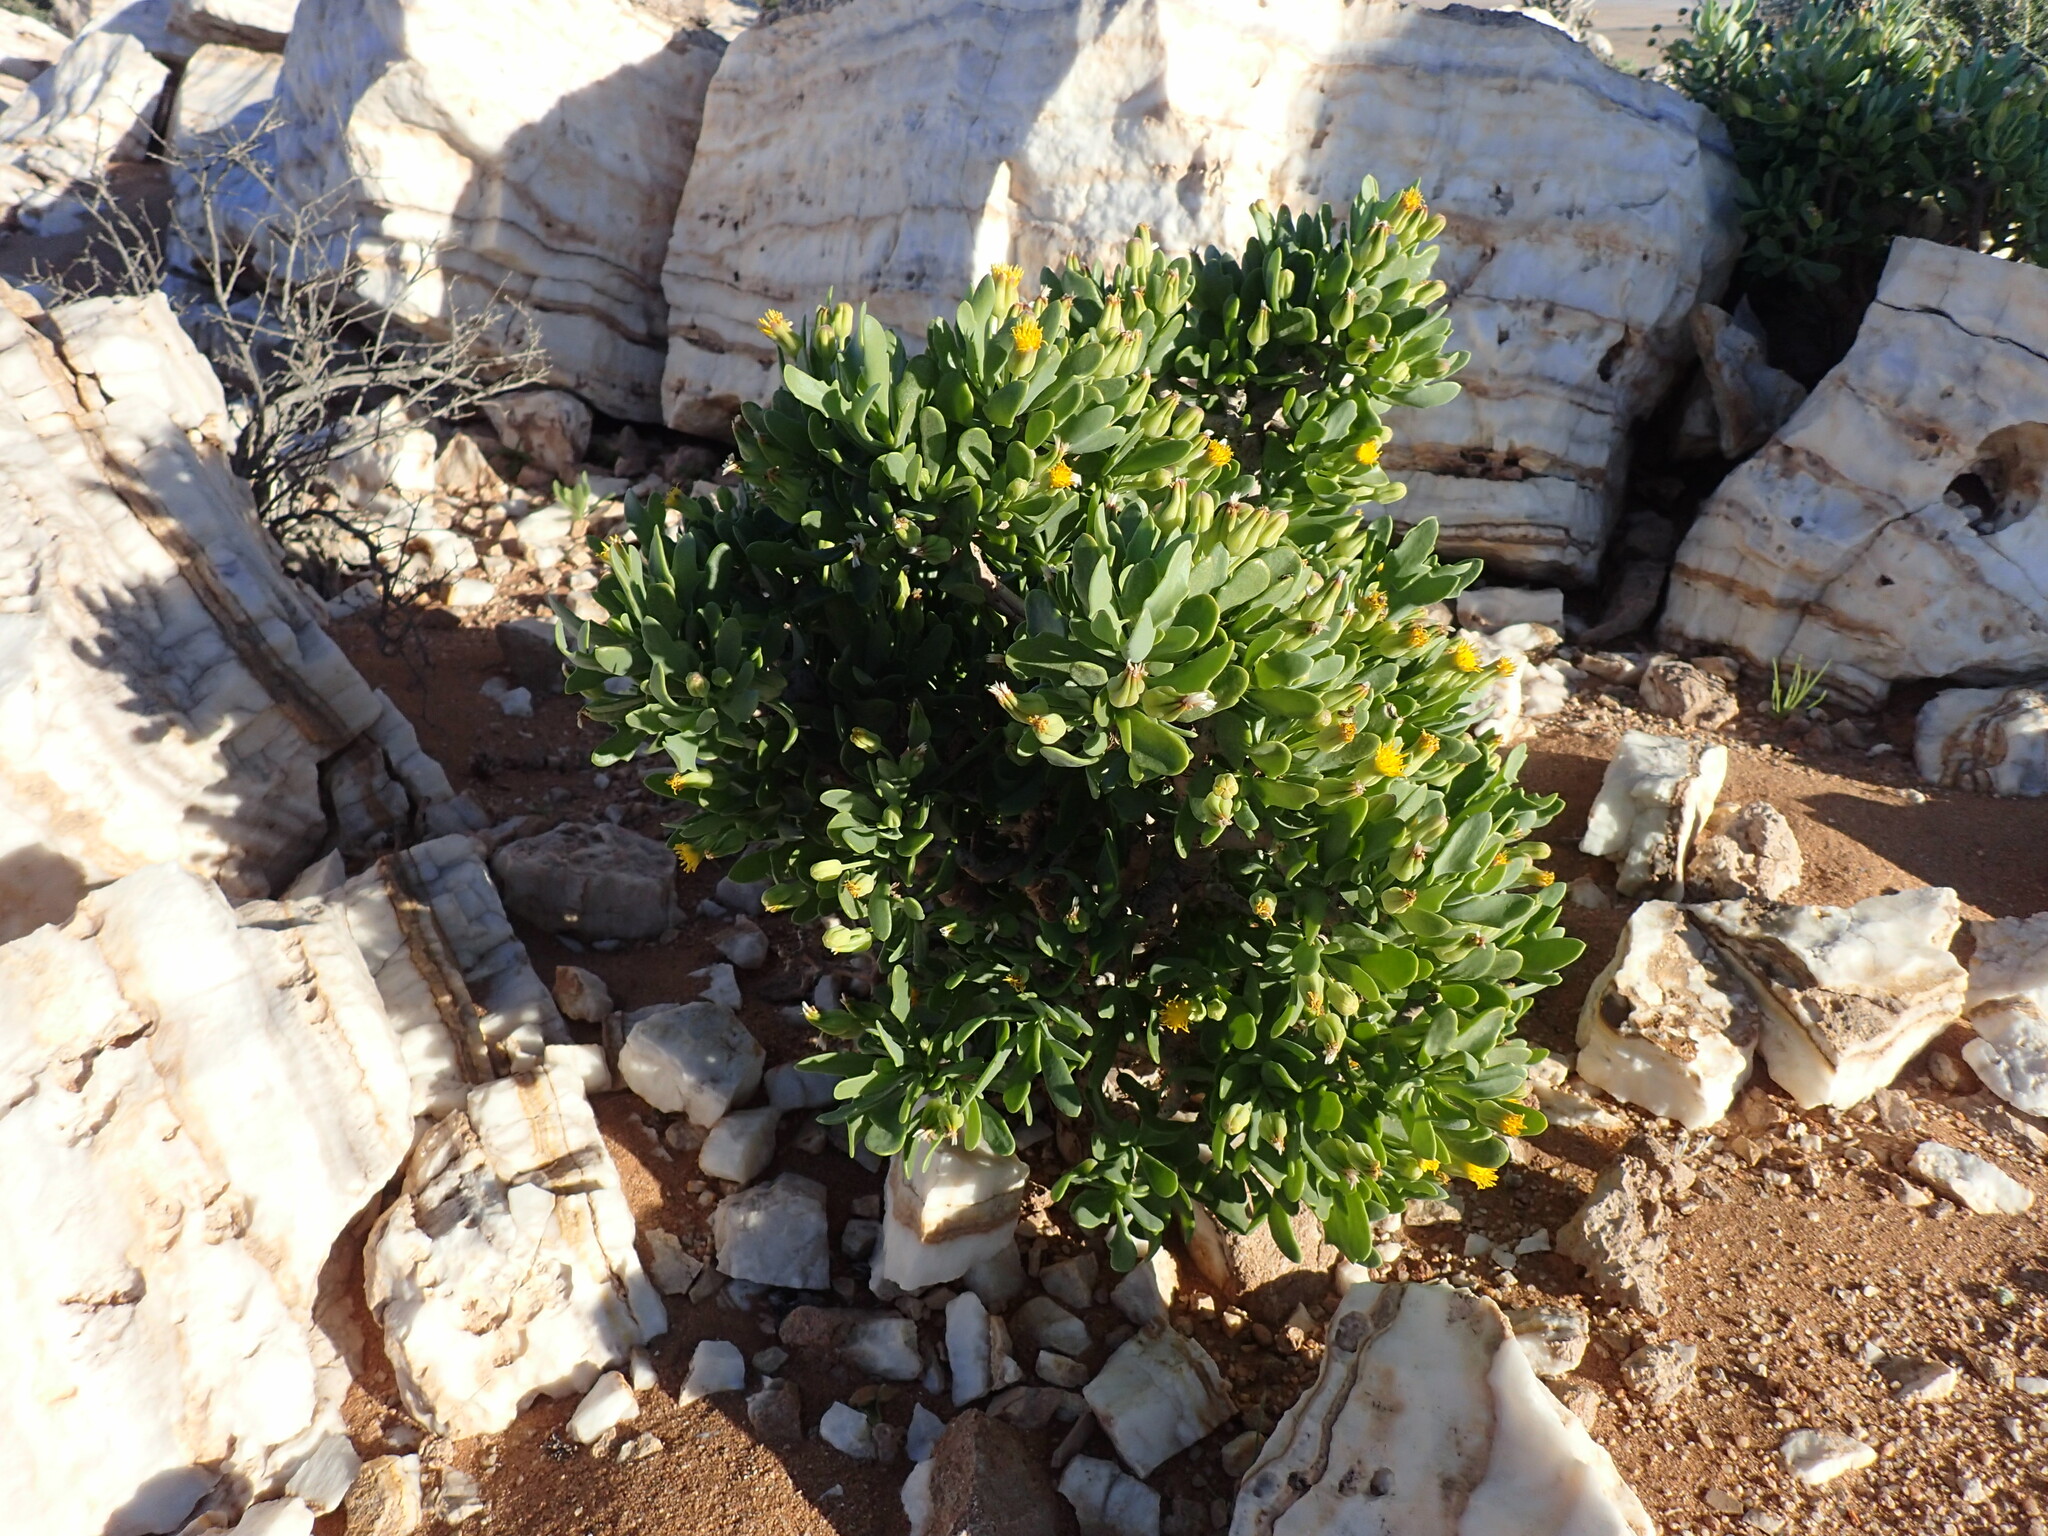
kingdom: Plantae
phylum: Tracheophyta
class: Magnoliopsida
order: Asterales
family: Asteraceae
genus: Othonna
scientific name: Othonna lasiocarpa
